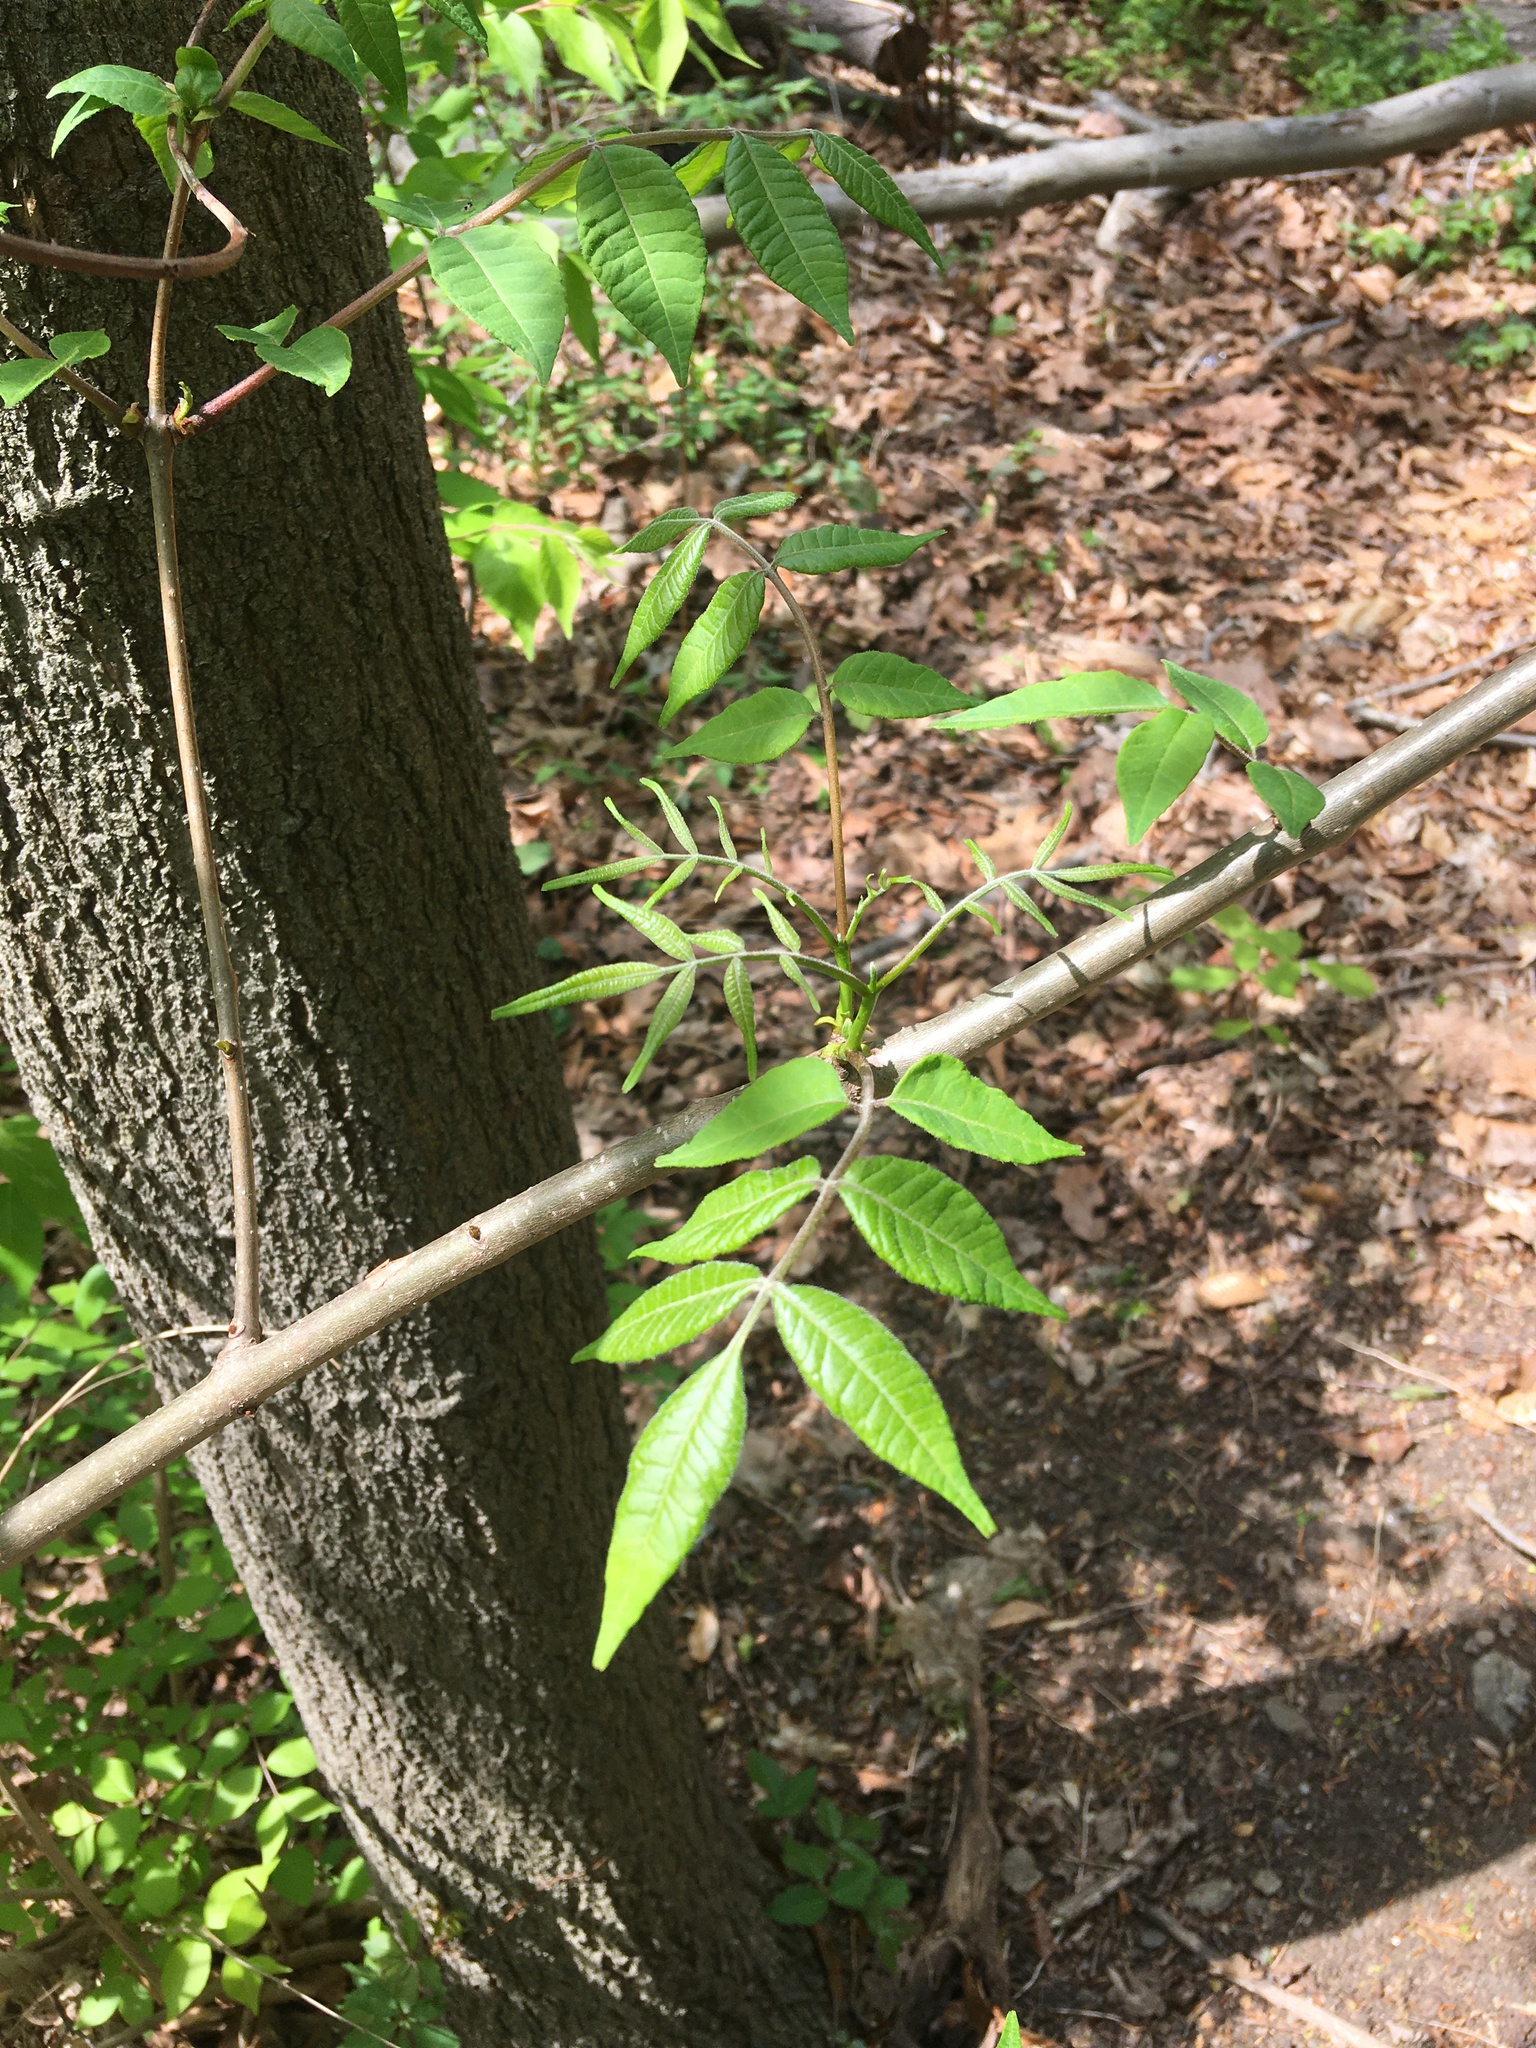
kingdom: Plantae
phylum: Tracheophyta
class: Magnoliopsida
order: Sapindales
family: Rutaceae
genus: Phellodendron
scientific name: Phellodendron amurense
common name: Amur corktree
